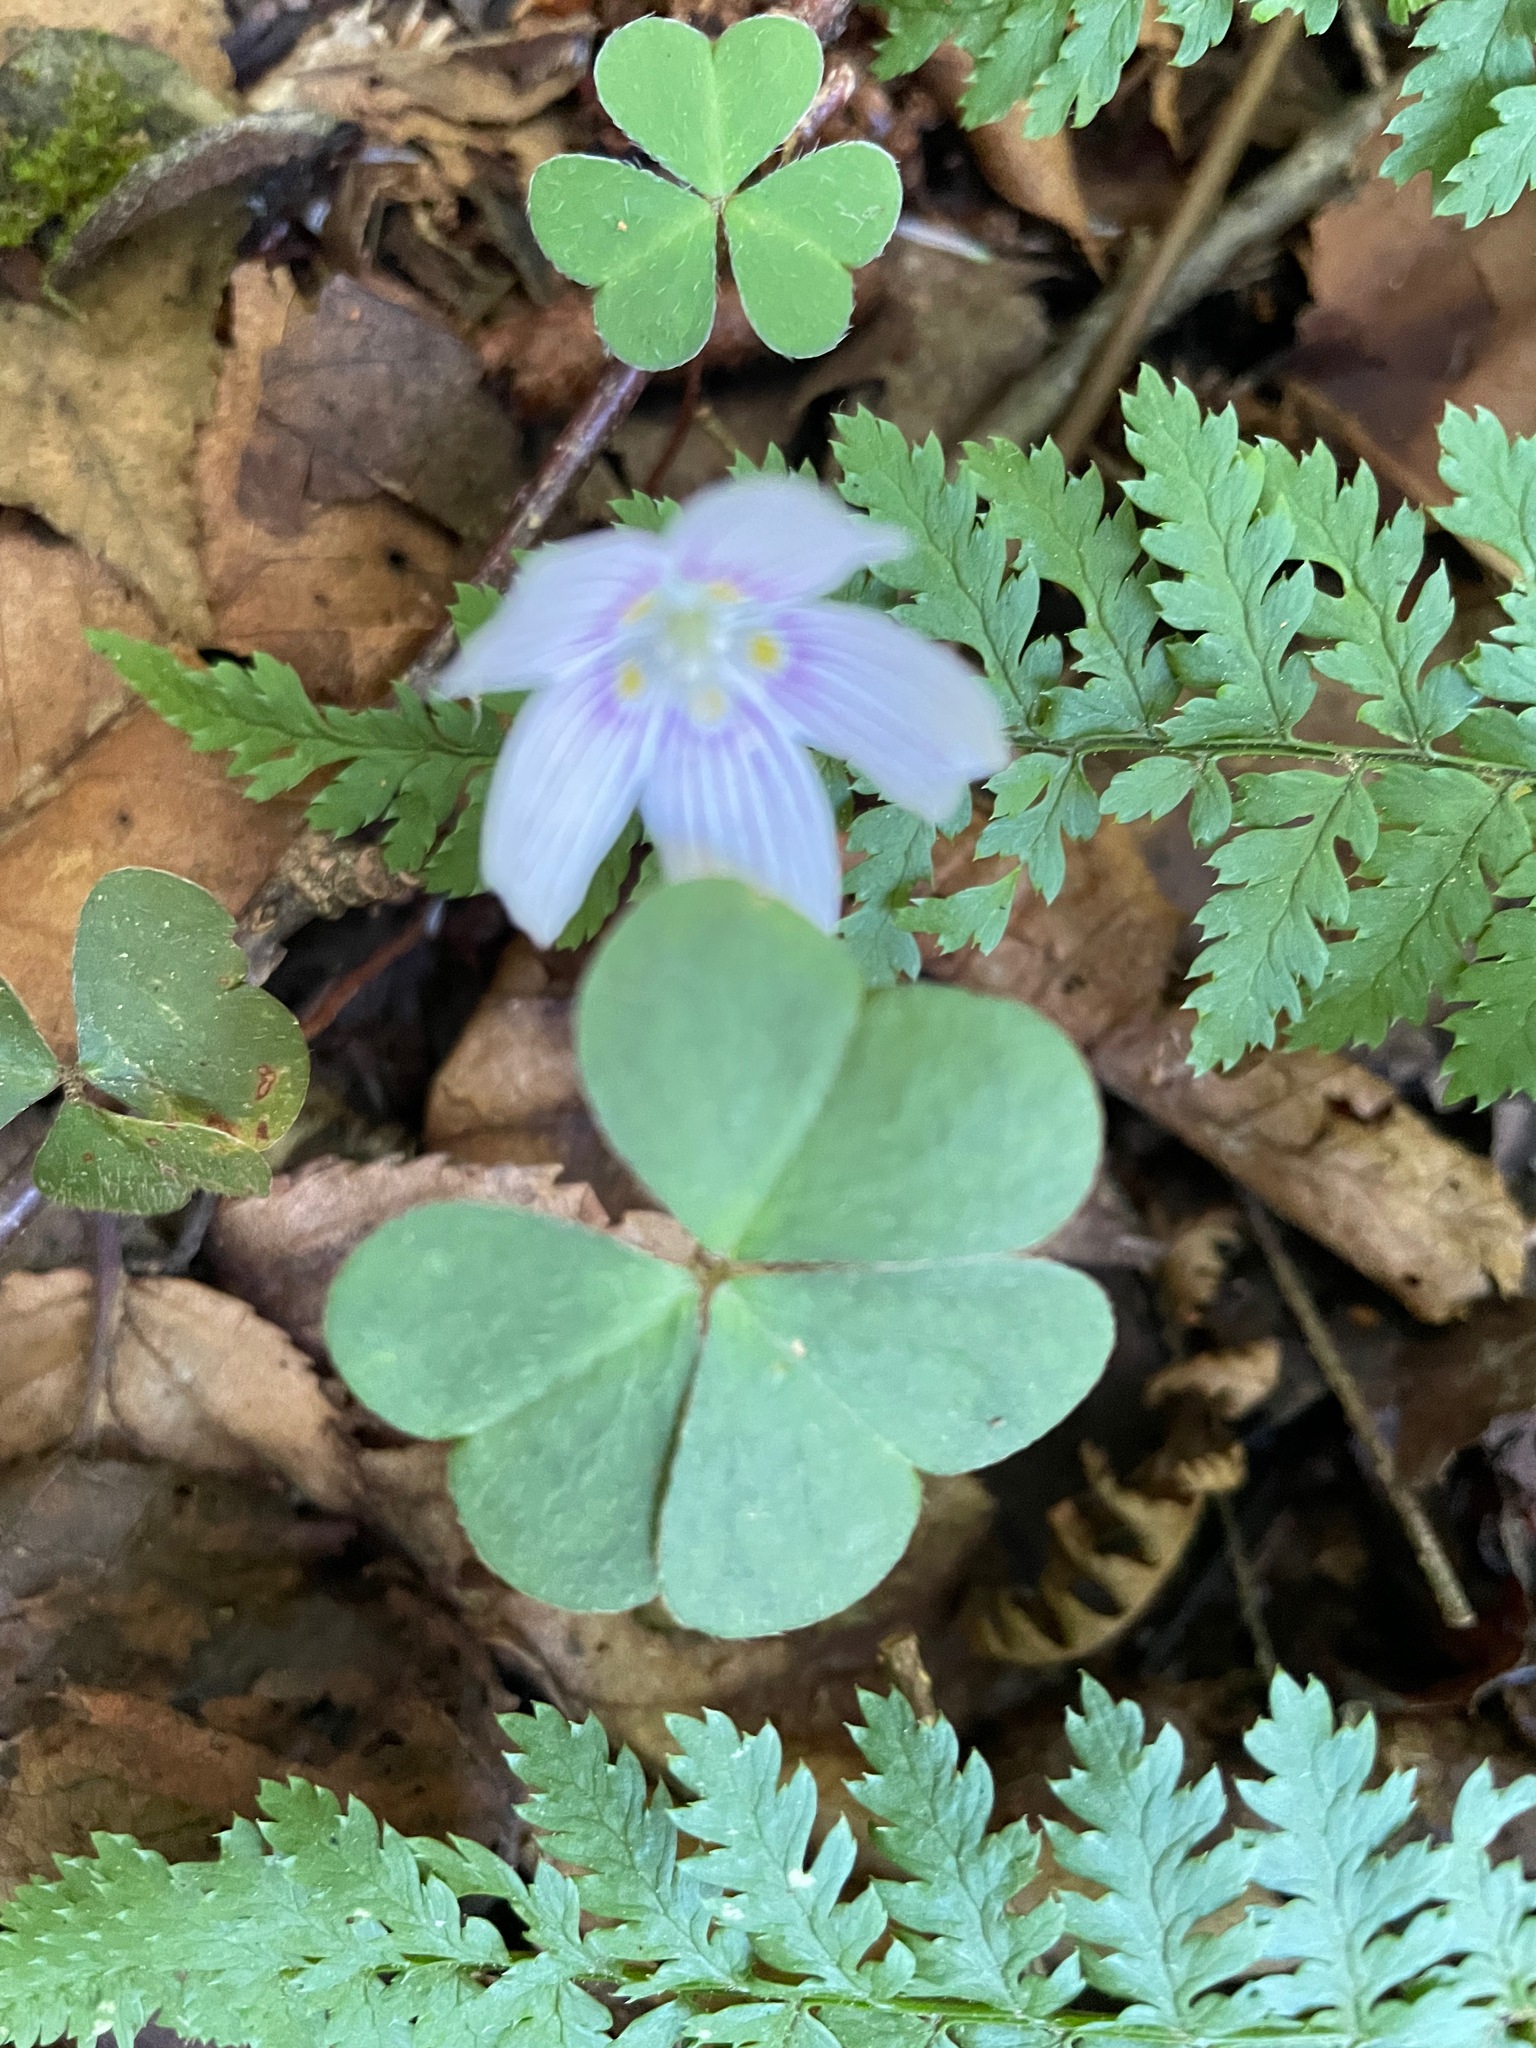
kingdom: Plantae
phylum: Tracheophyta
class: Magnoliopsida
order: Oxalidales
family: Oxalidaceae
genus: Oxalis
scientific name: Oxalis montana
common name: American wood-sorrel
